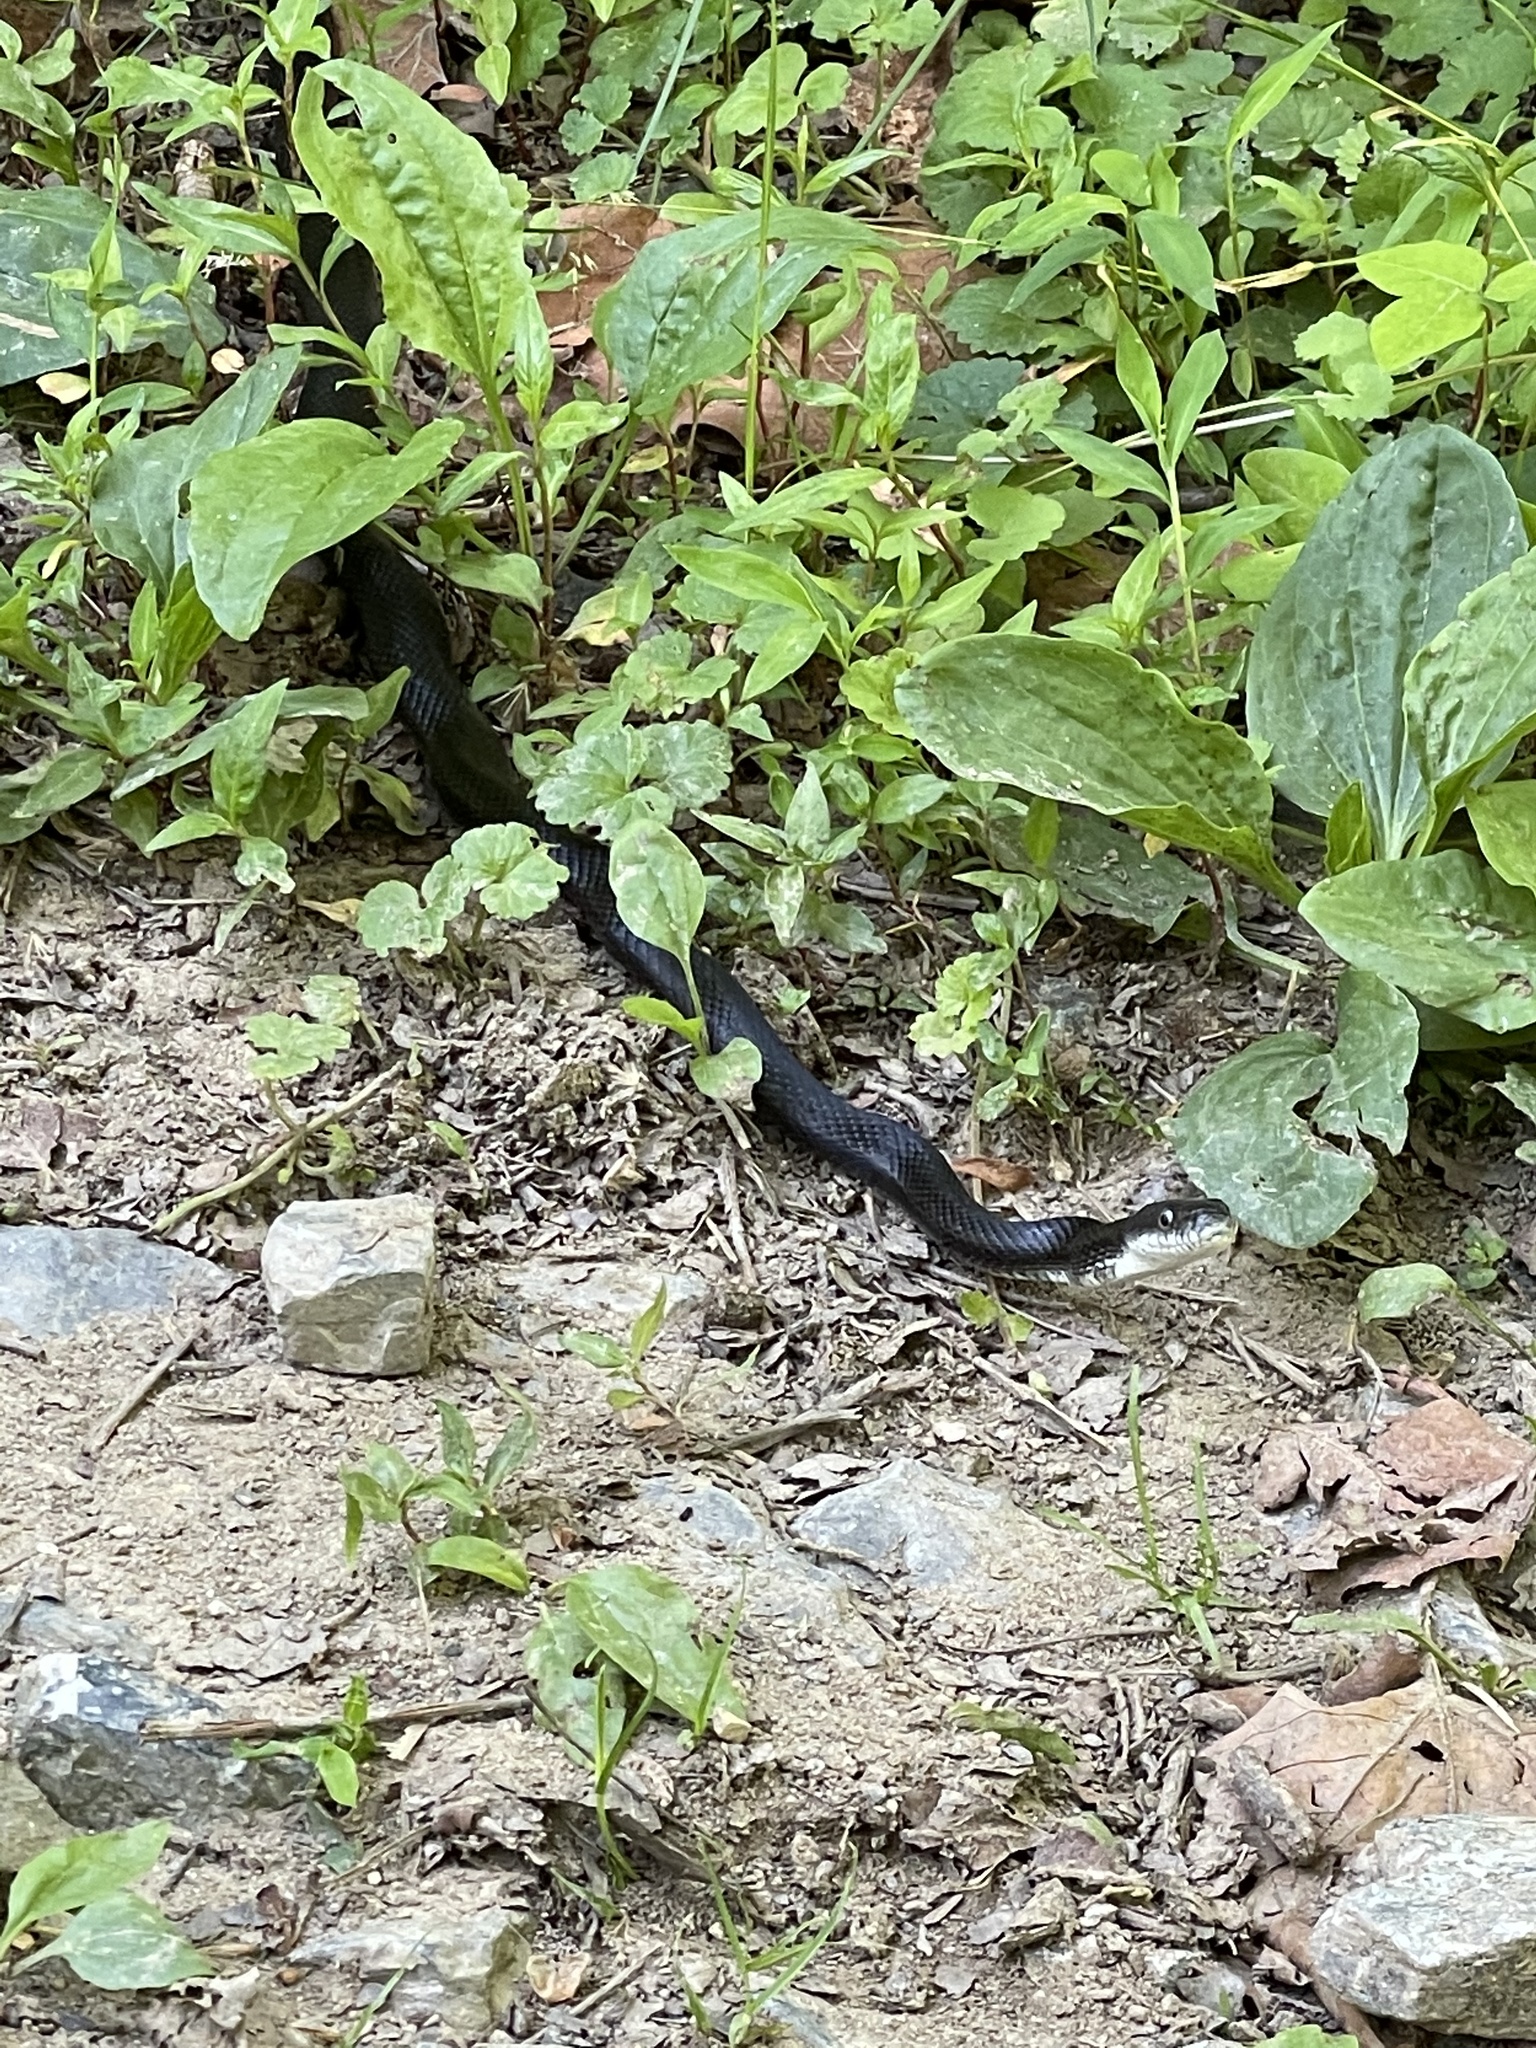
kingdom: Animalia
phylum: Chordata
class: Squamata
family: Colubridae
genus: Pantherophis
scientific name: Pantherophis alleghaniensis
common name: Eastern rat snake
